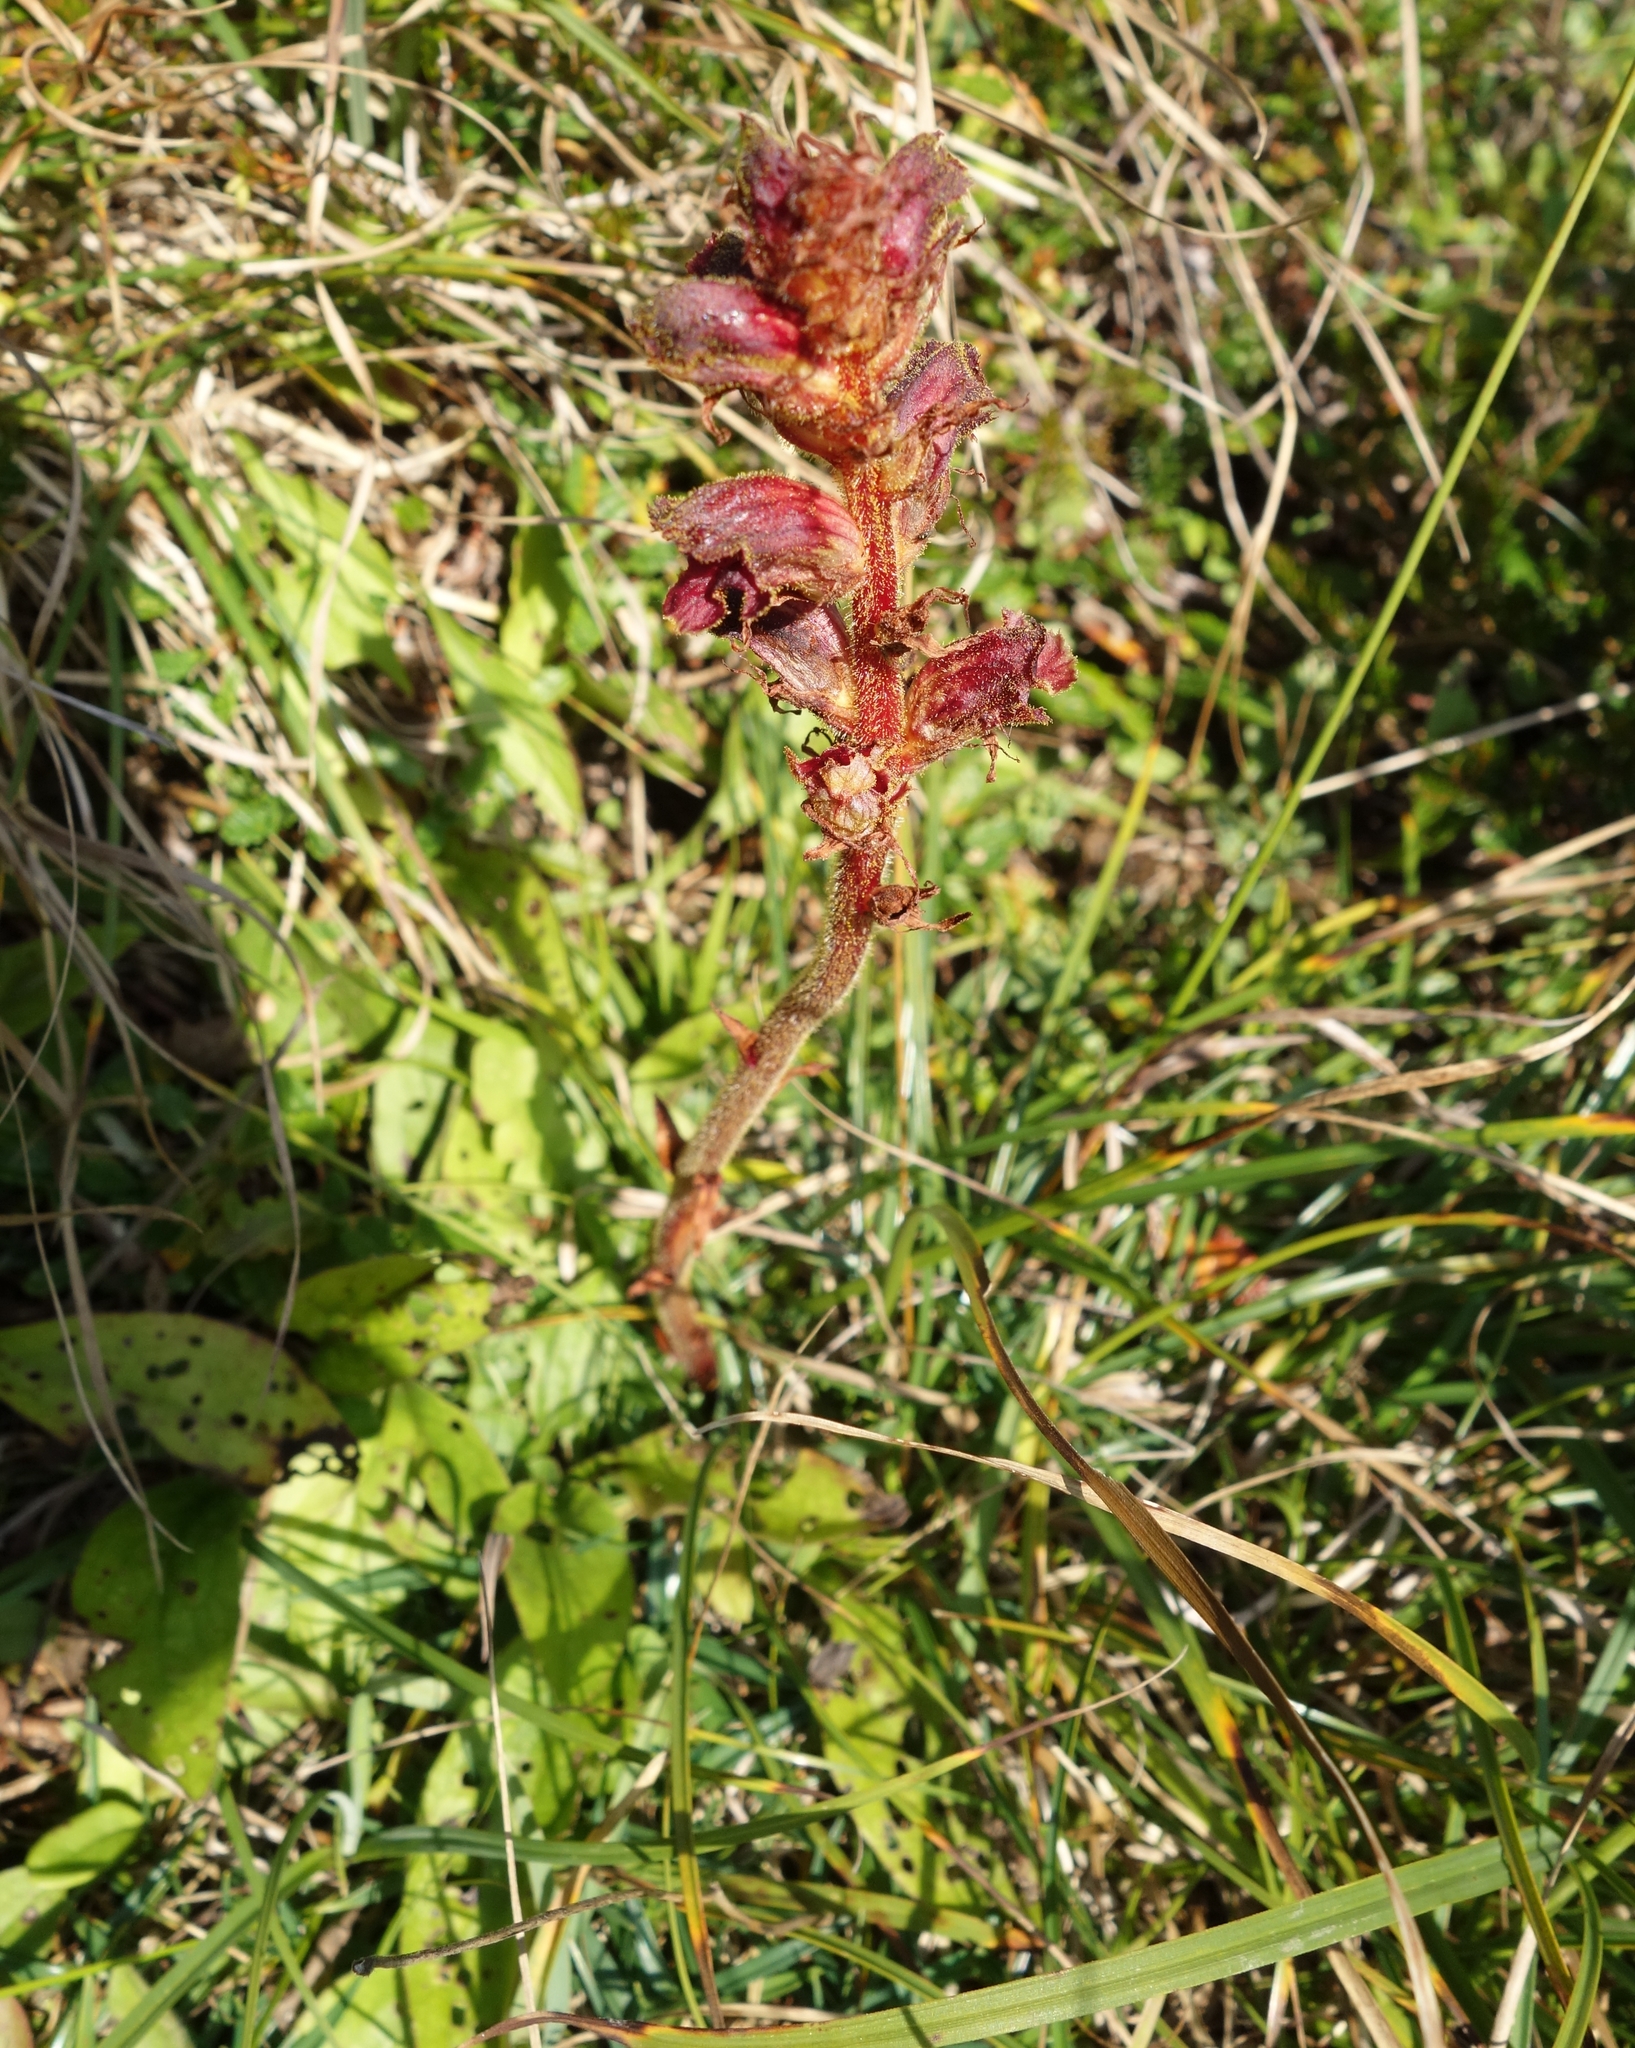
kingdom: Plantae
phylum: Tracheophyta
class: Magnoliopsida
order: Lamiales
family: Orobanchaceae
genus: Orobanche
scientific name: Orobanche gracilis
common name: Slender broomrape
